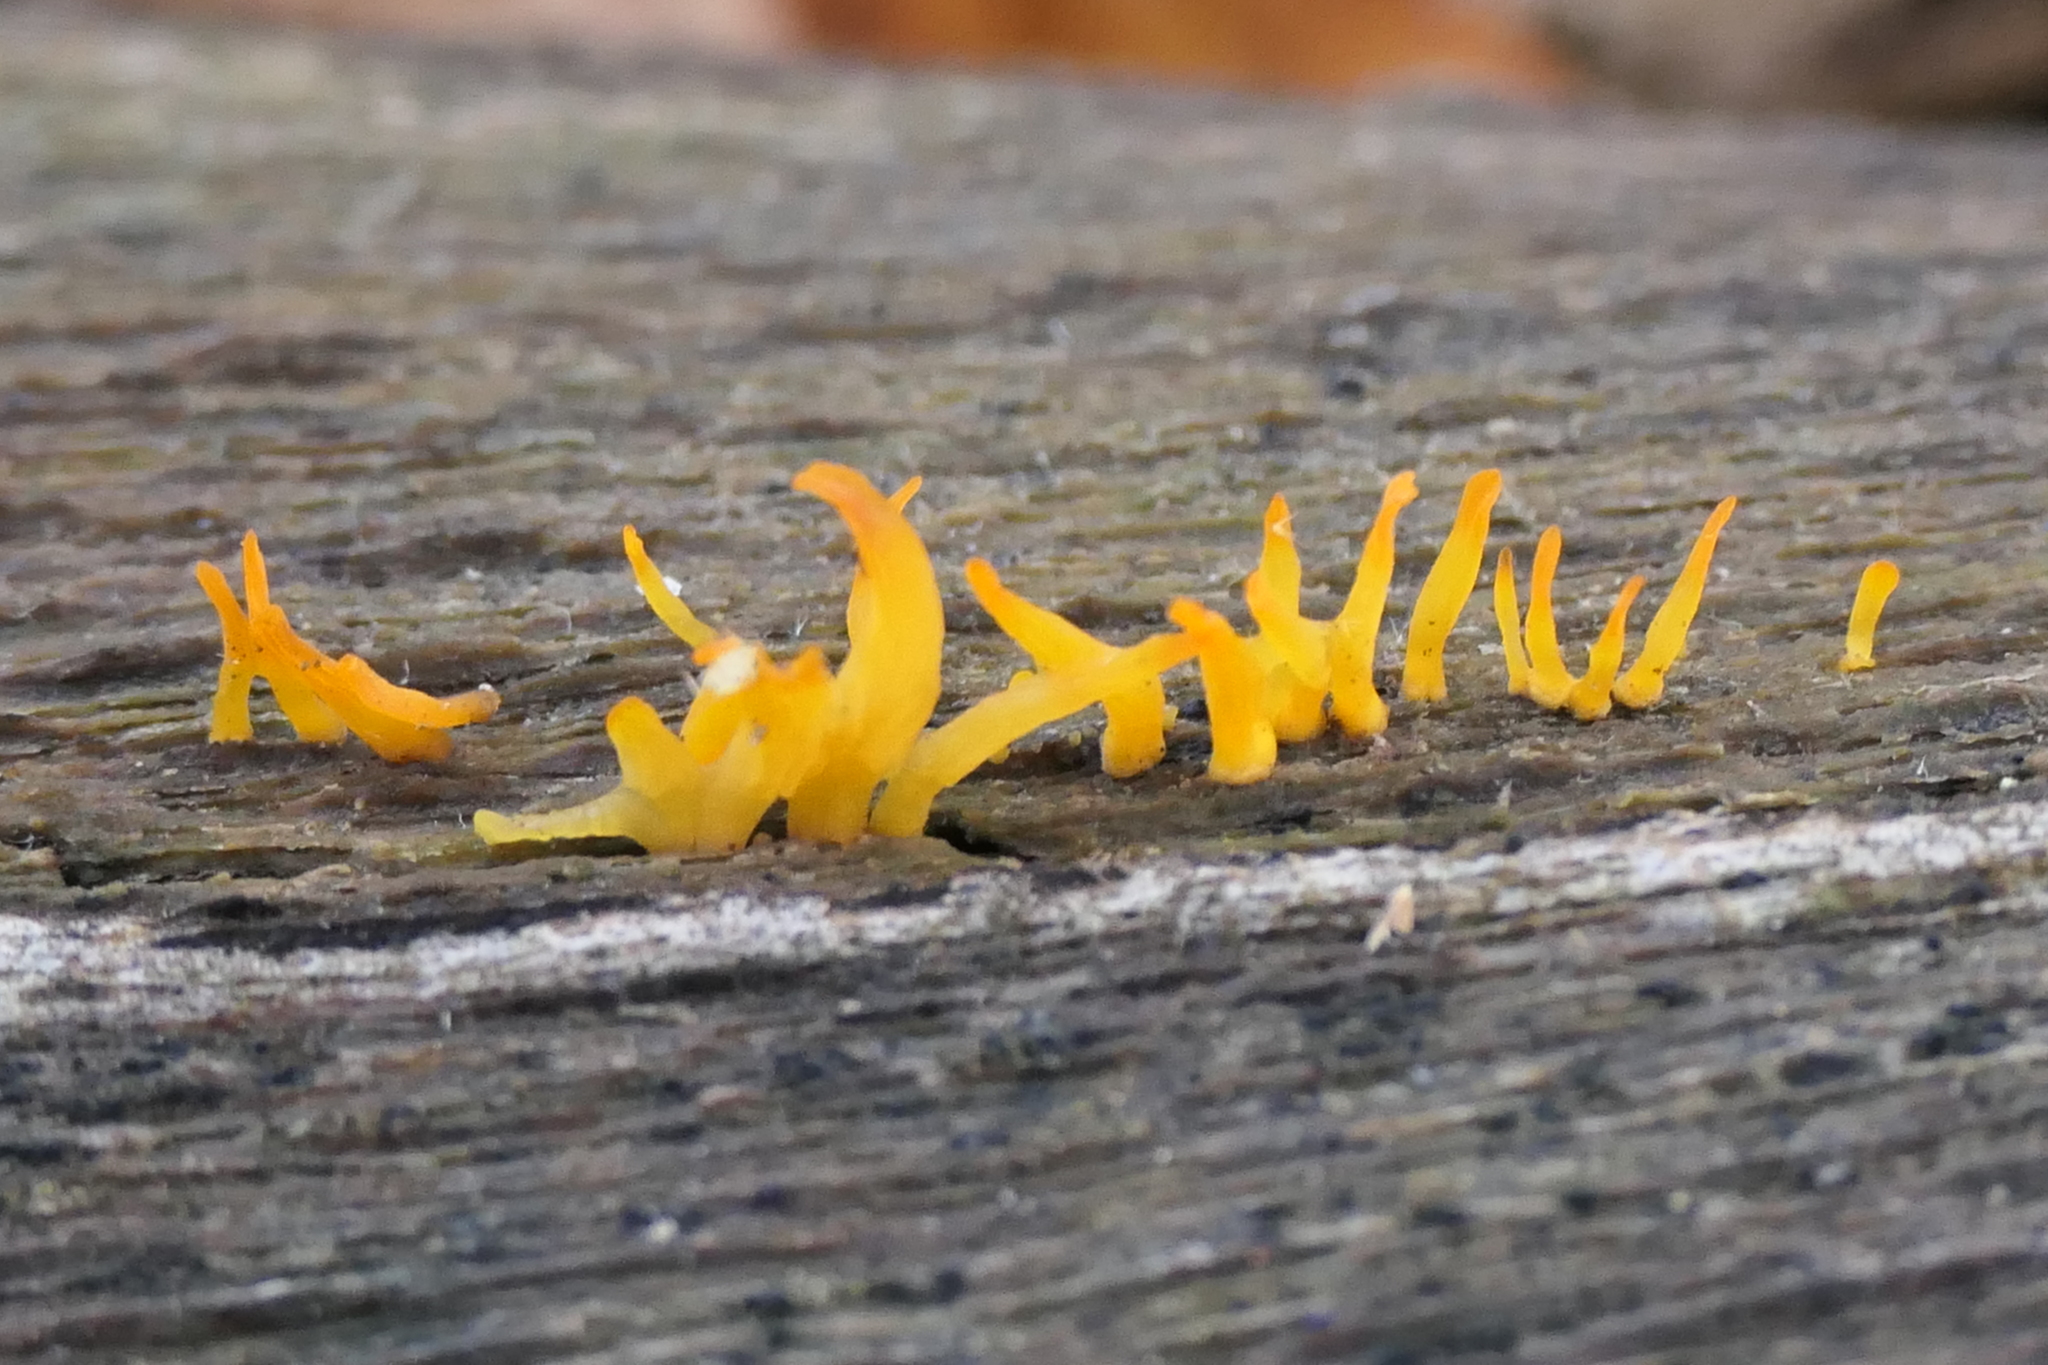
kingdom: Fungi
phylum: Basidiomycota
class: Dacrymycetes
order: Dacrymycetales
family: Dacrymycetaceae
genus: Calocera
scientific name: Calocera cornea
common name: Small stagshorn
